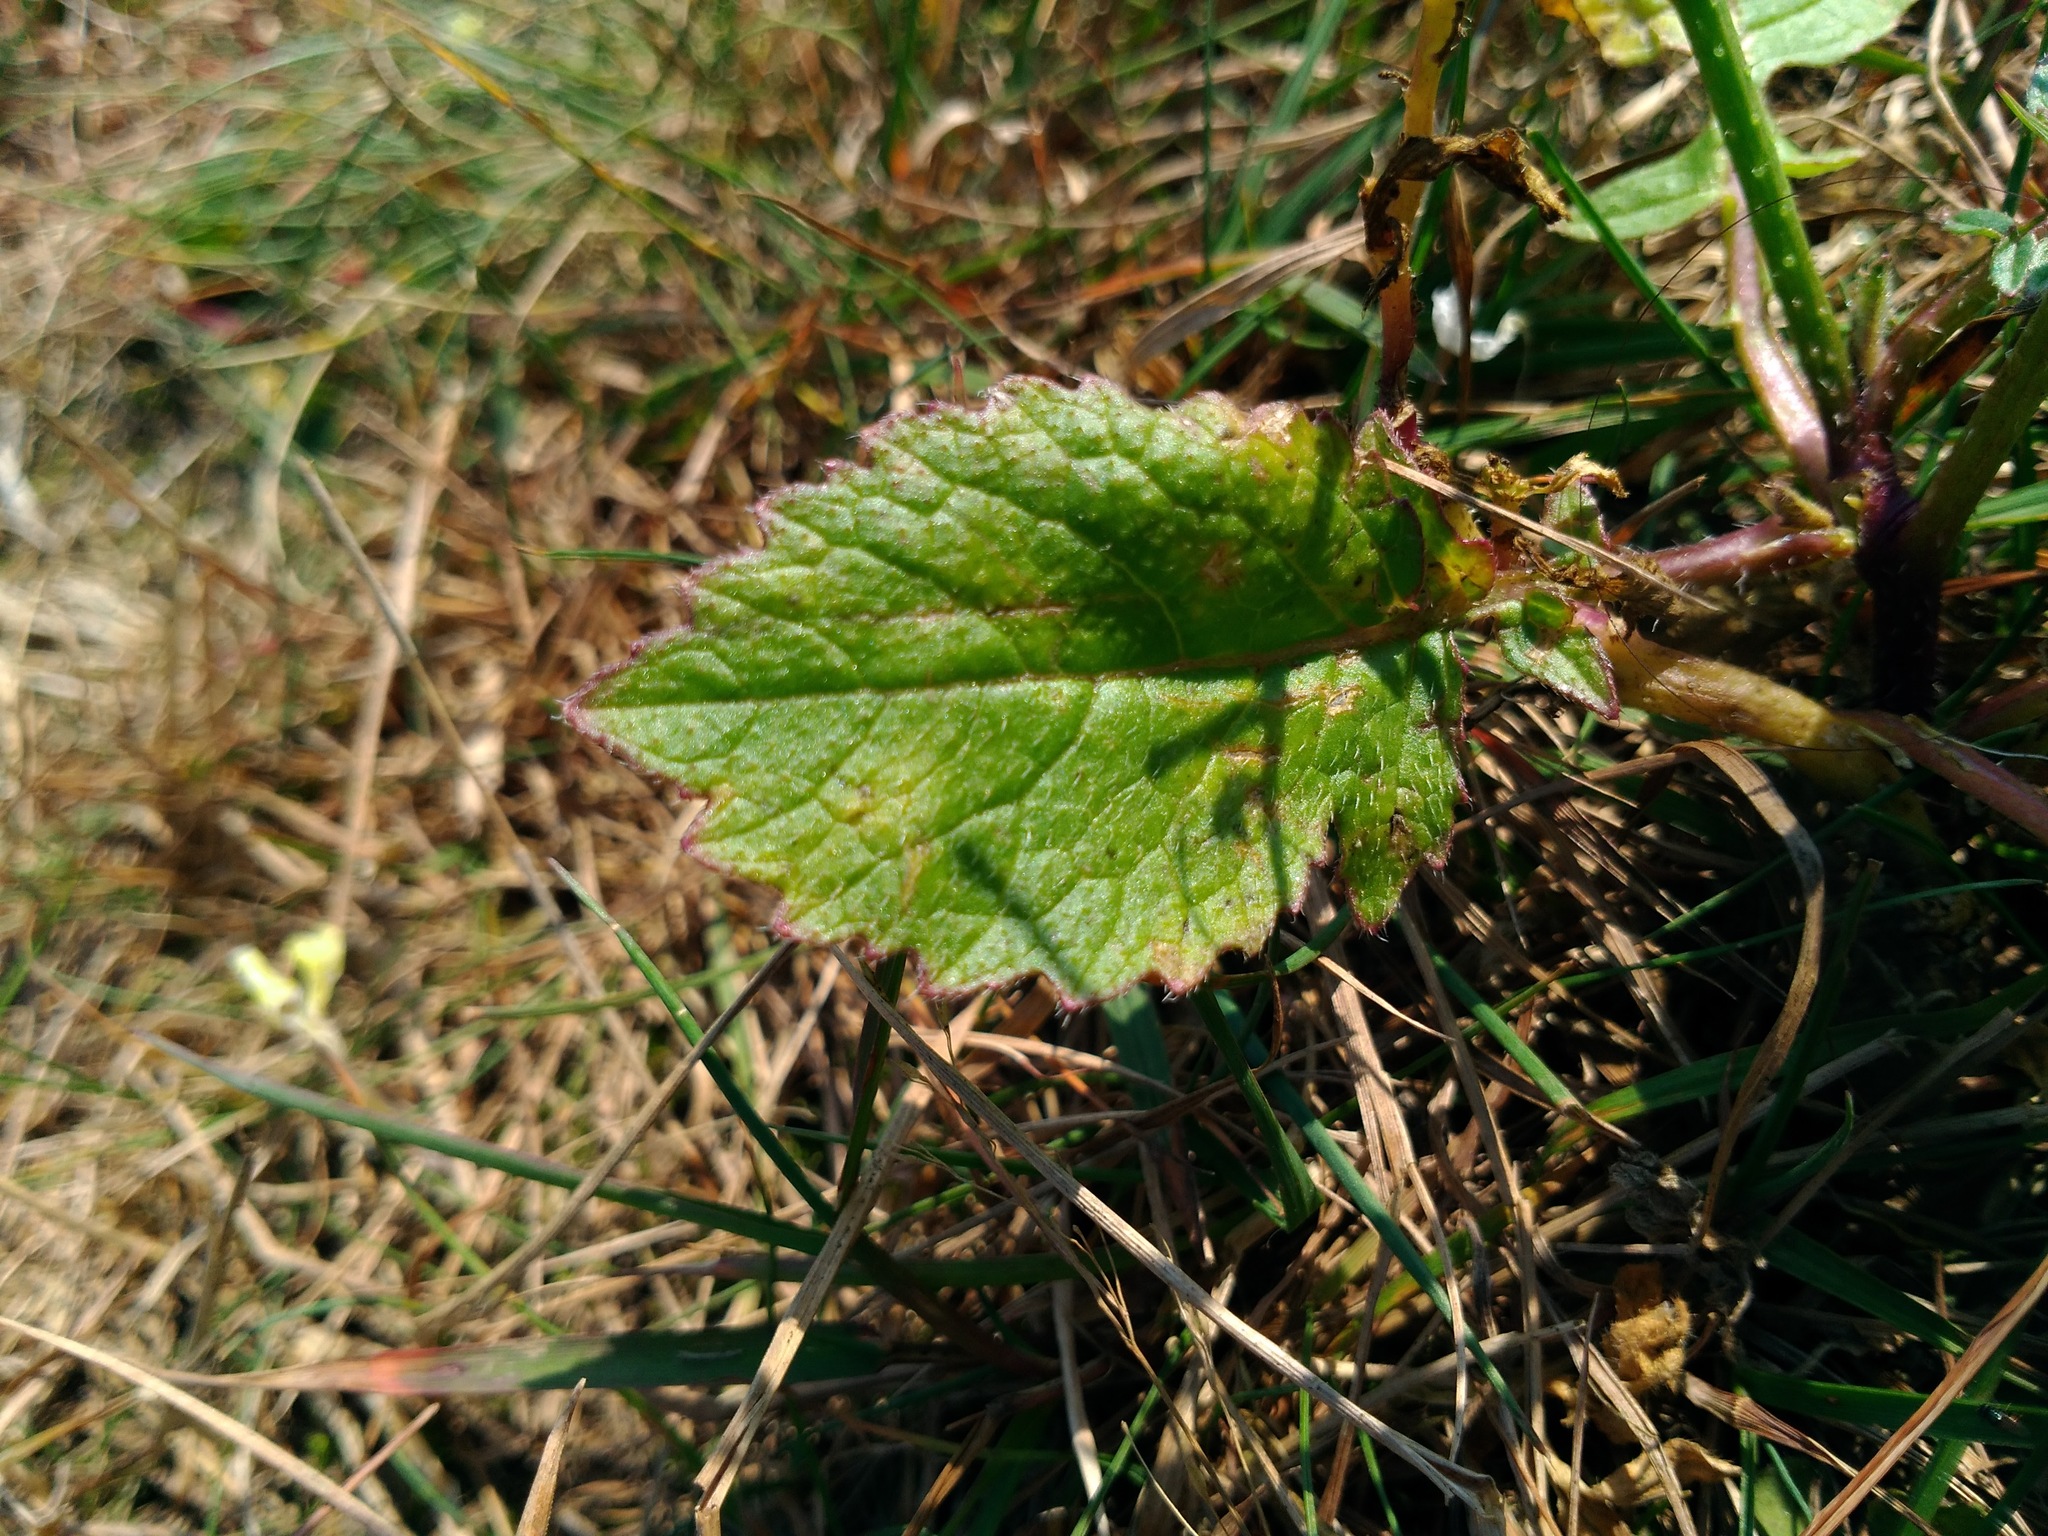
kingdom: Plantae
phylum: Tracheophyta
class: Magnoliopsida
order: Brassicales
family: Brassicaceae
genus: Raphanus
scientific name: Raphanus raphanistrum
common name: Wild radish
